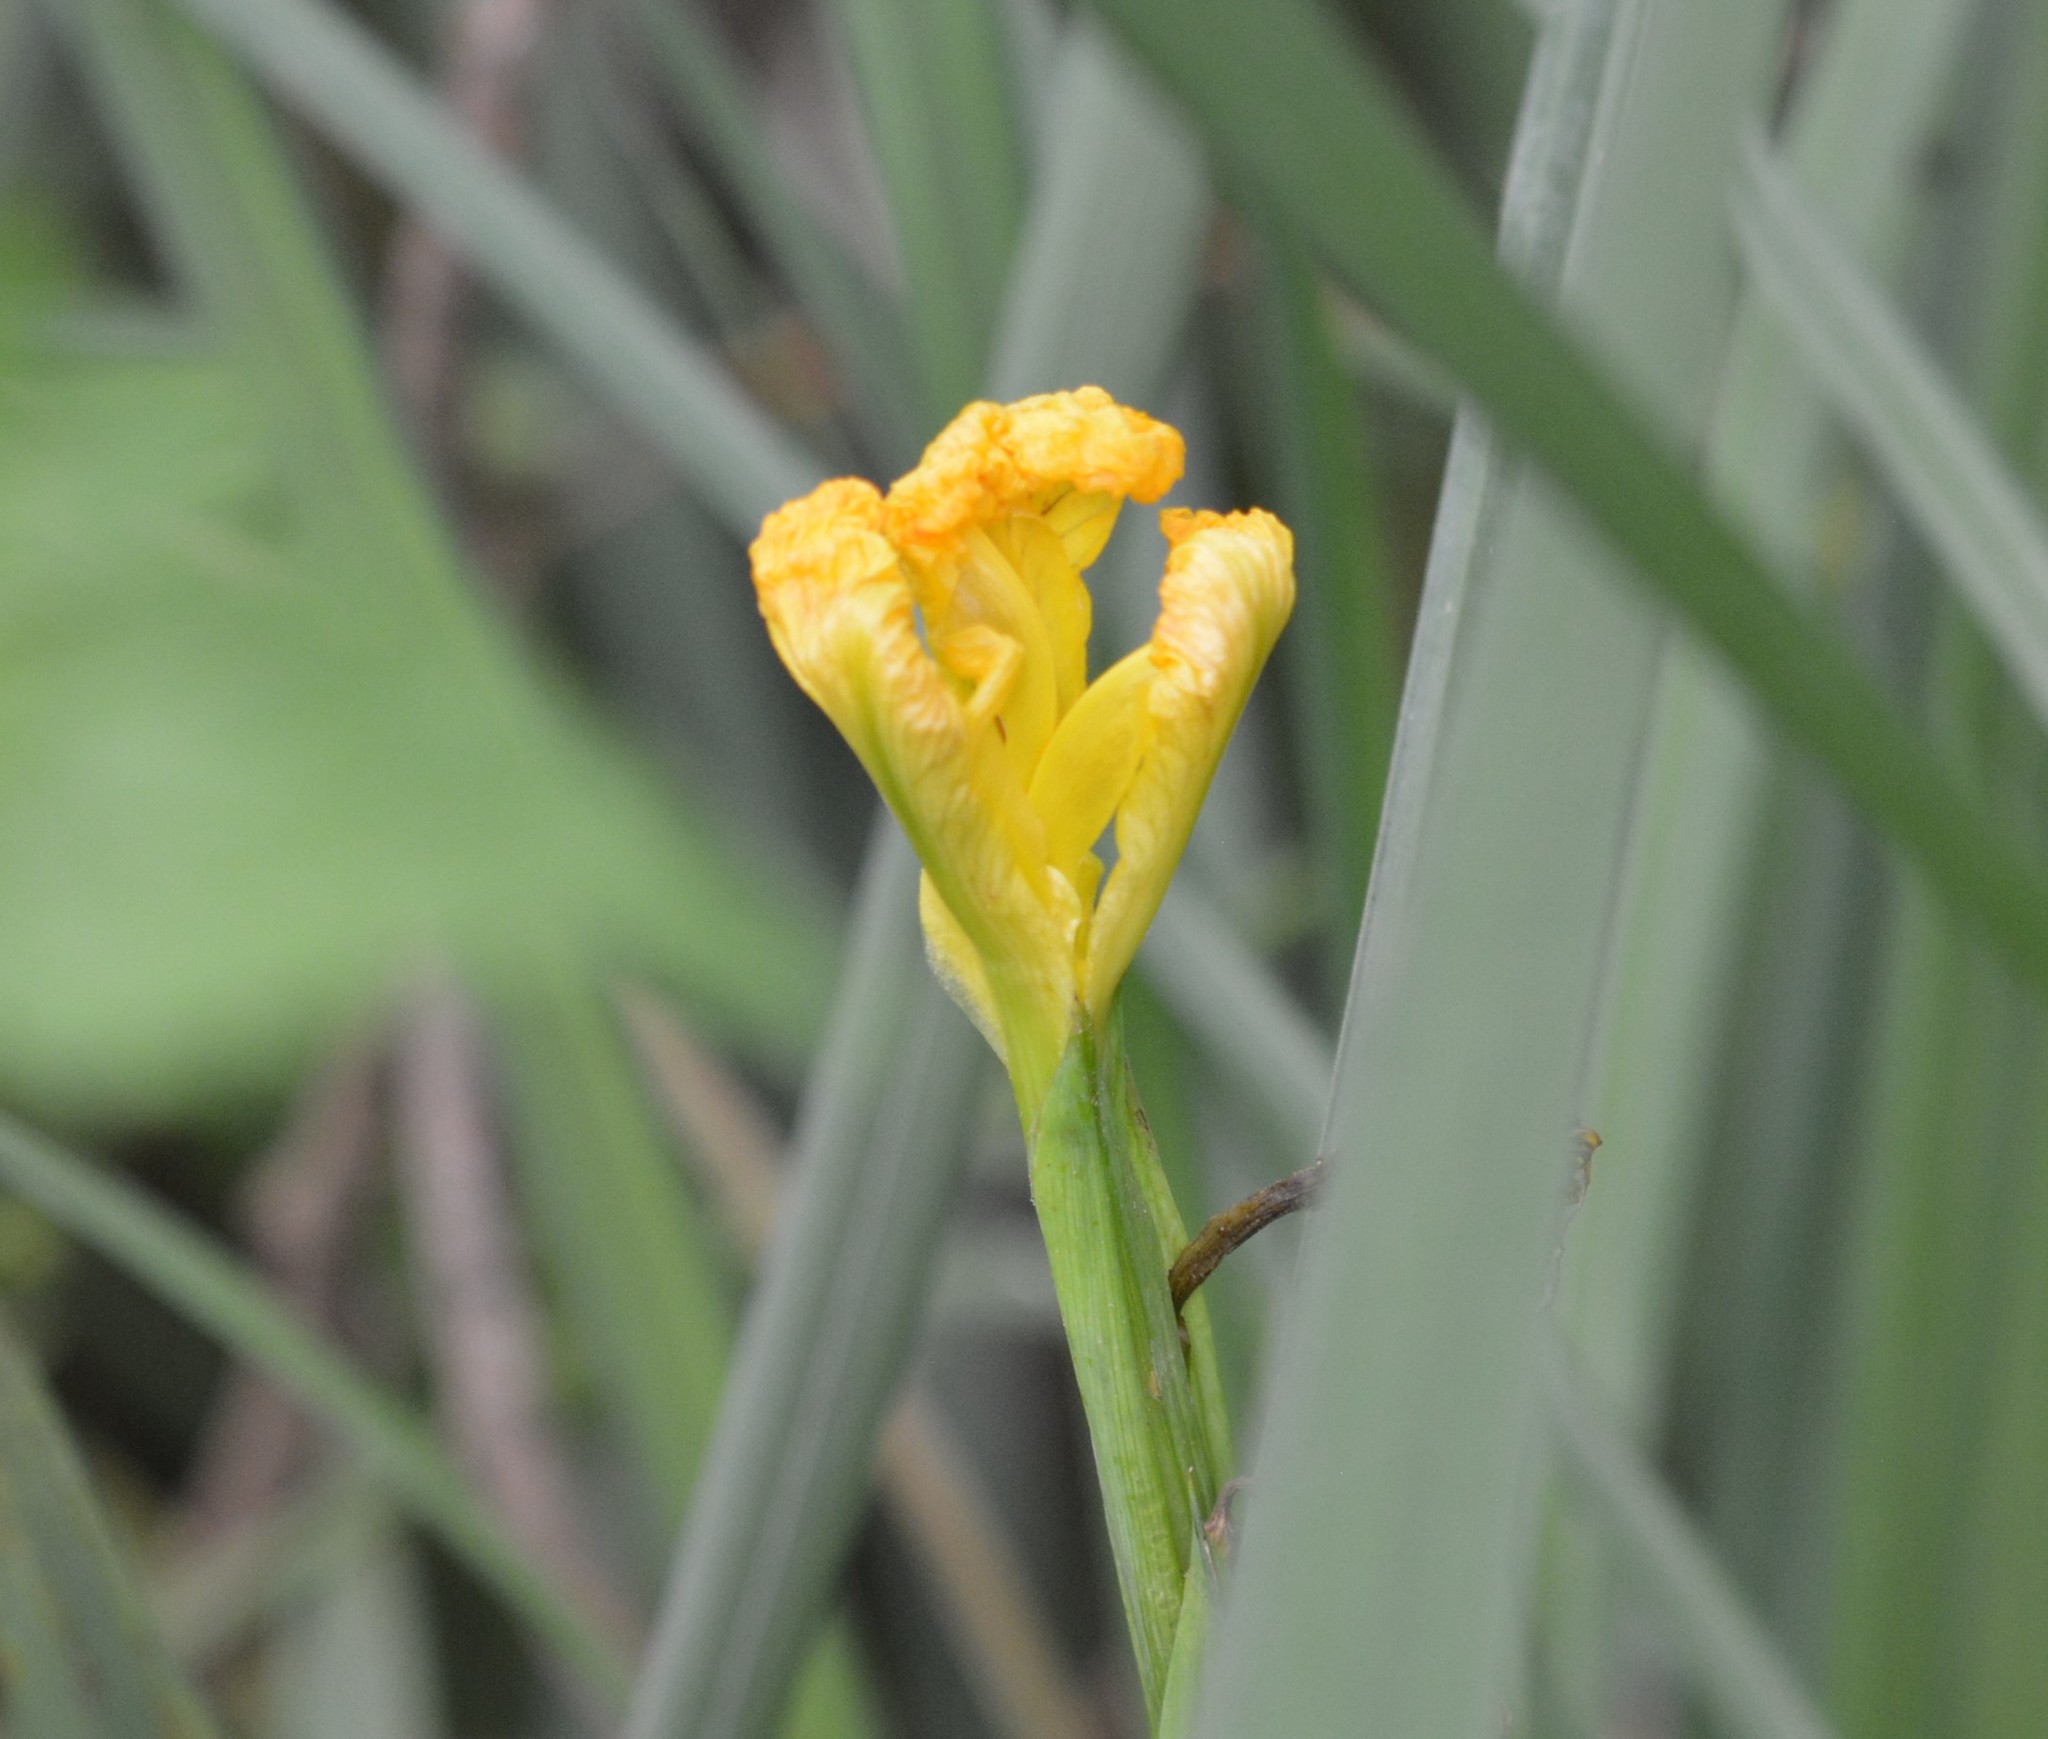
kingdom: Plantae
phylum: Tracheophyta
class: Liliopsida
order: Asparagales
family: Iridaceae
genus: Iris
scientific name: Iris pseudacorus
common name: Yellow flag
